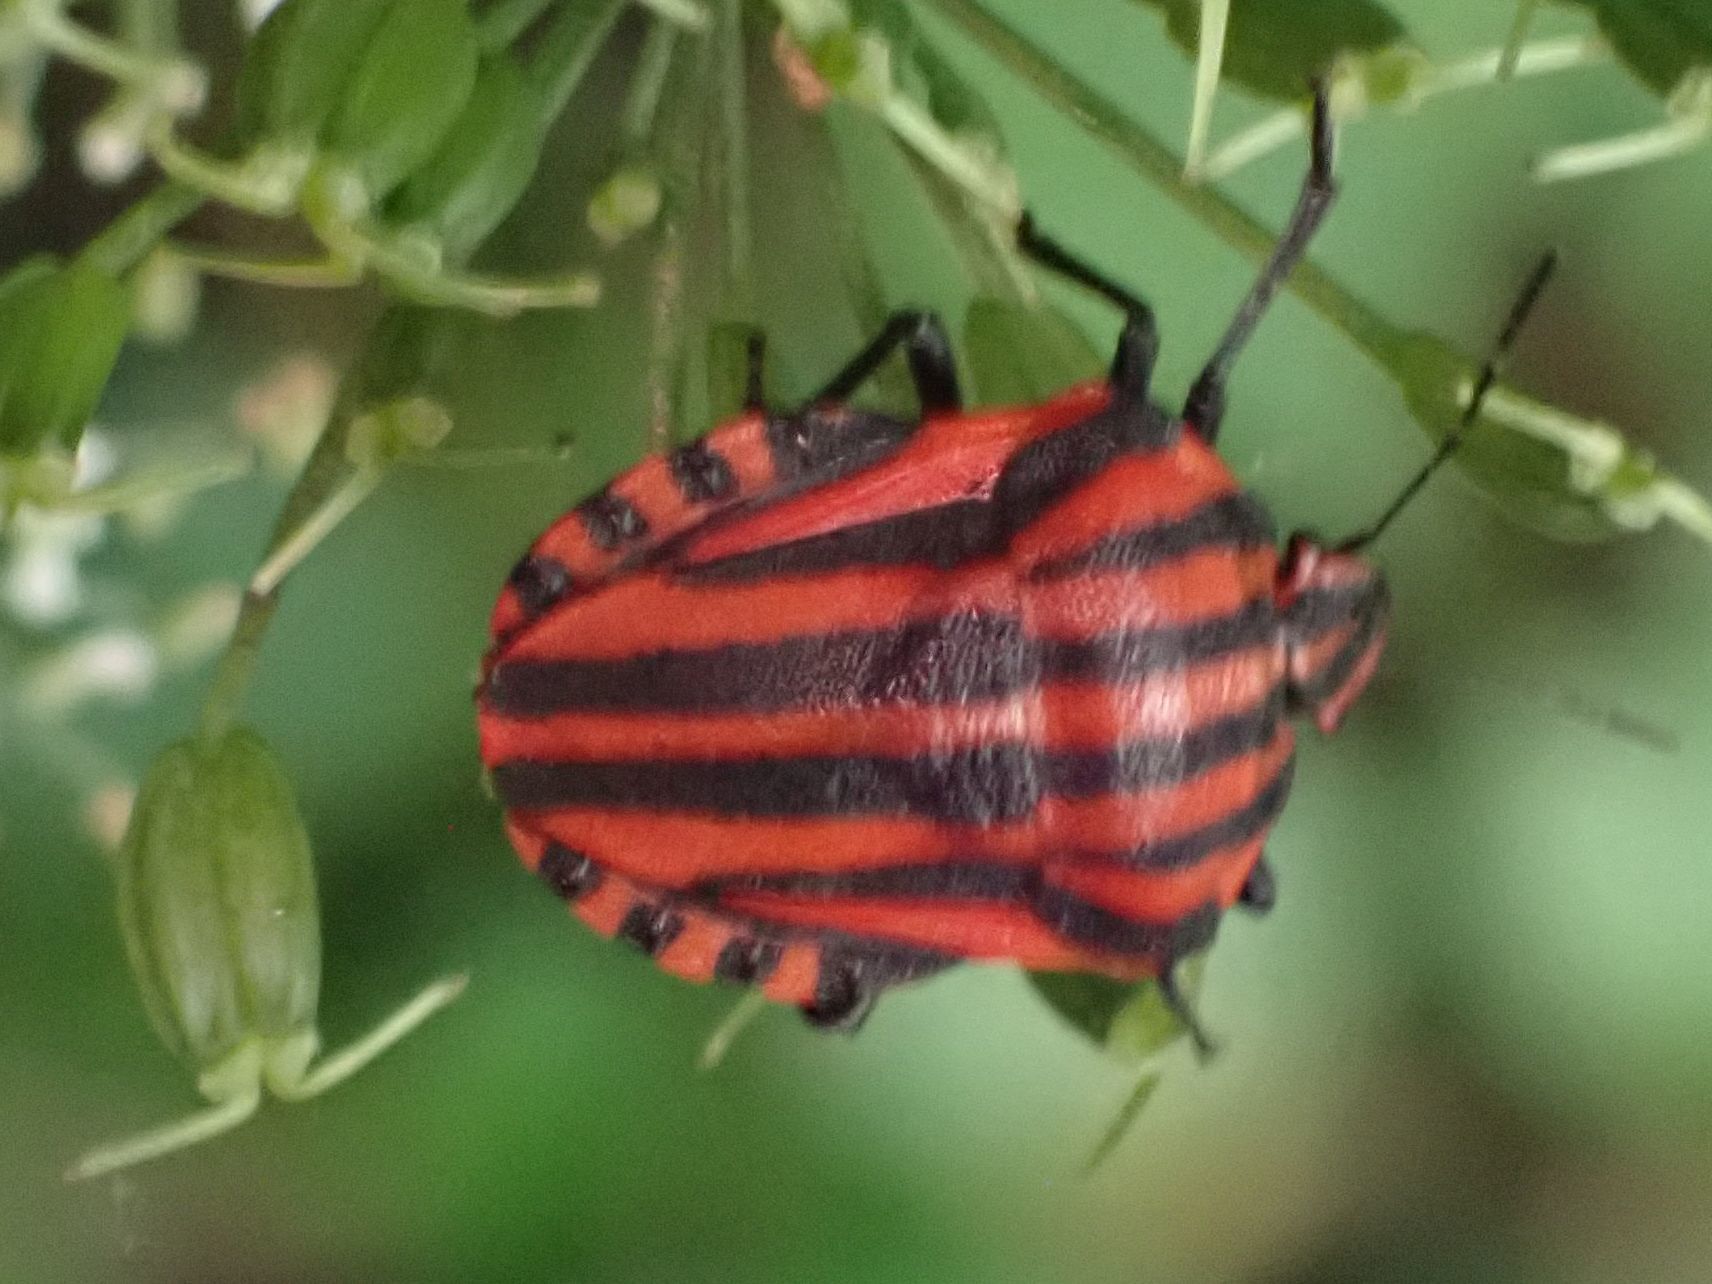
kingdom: Animalia
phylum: Arthropoda
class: Insecta
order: Hemiptera
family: Pentatomidae
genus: Graphosoma
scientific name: Graphosoma italicum
